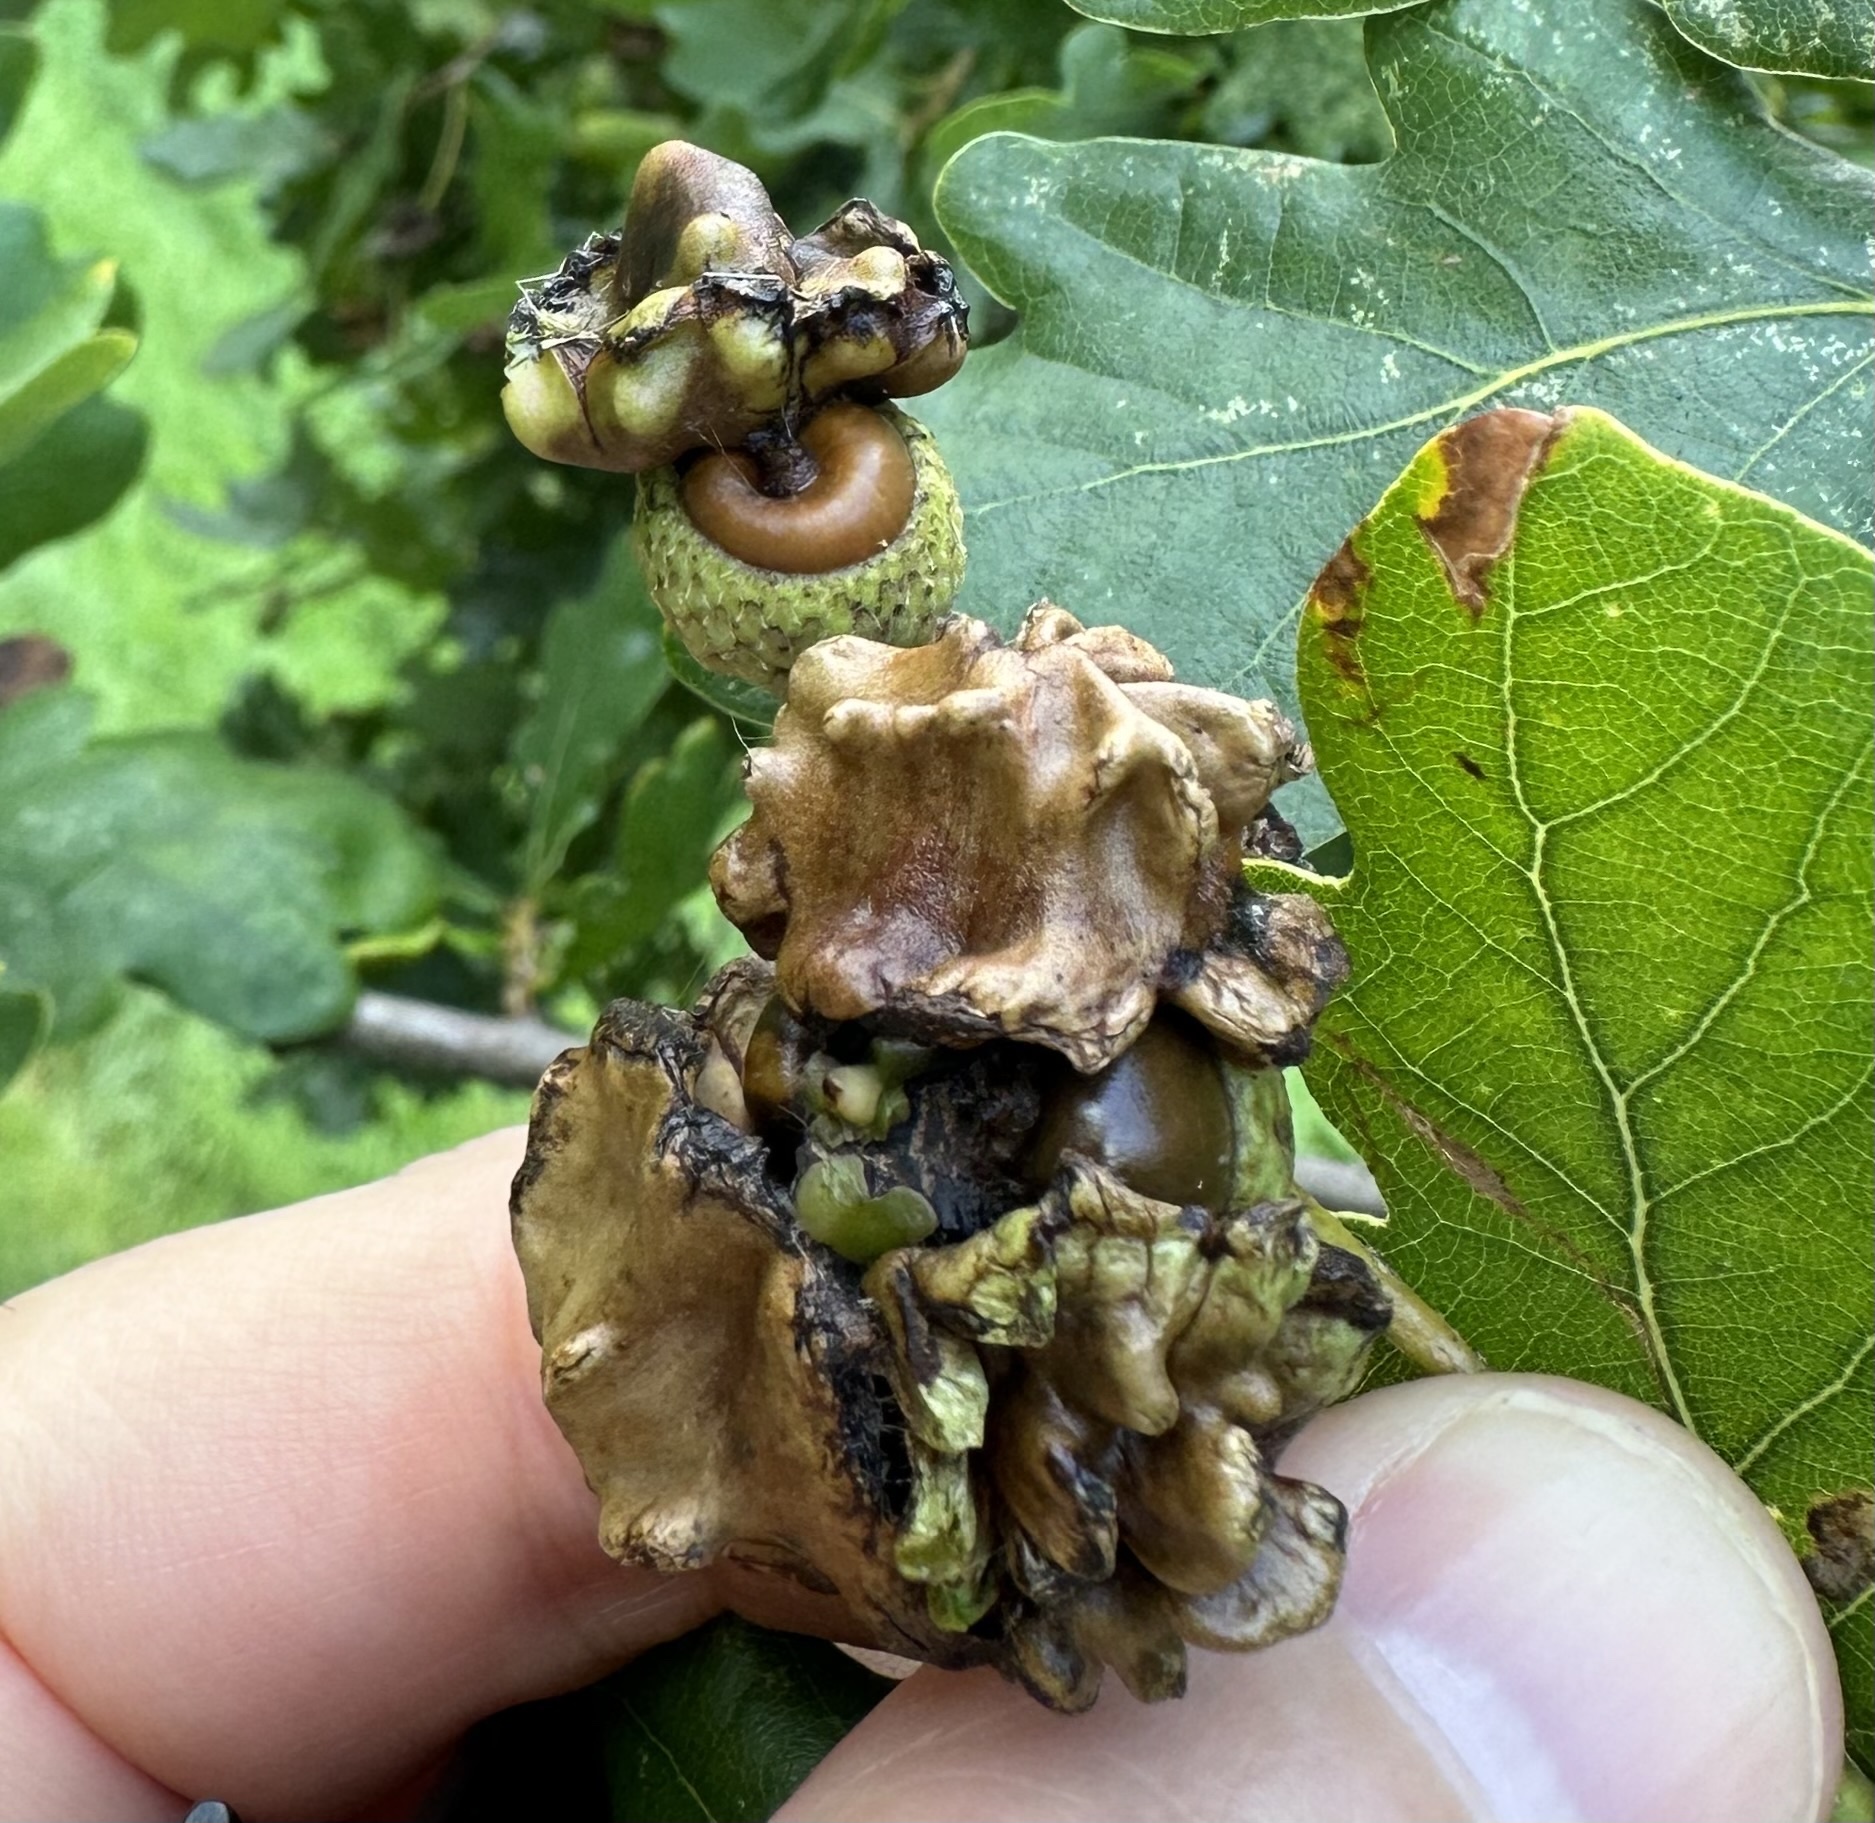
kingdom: Animalia
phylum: Arthropoda
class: Insecta
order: Hymenoptera
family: Cynipidae
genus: Andricus
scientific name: Andricus quercuscalicis
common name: Knopper gall
